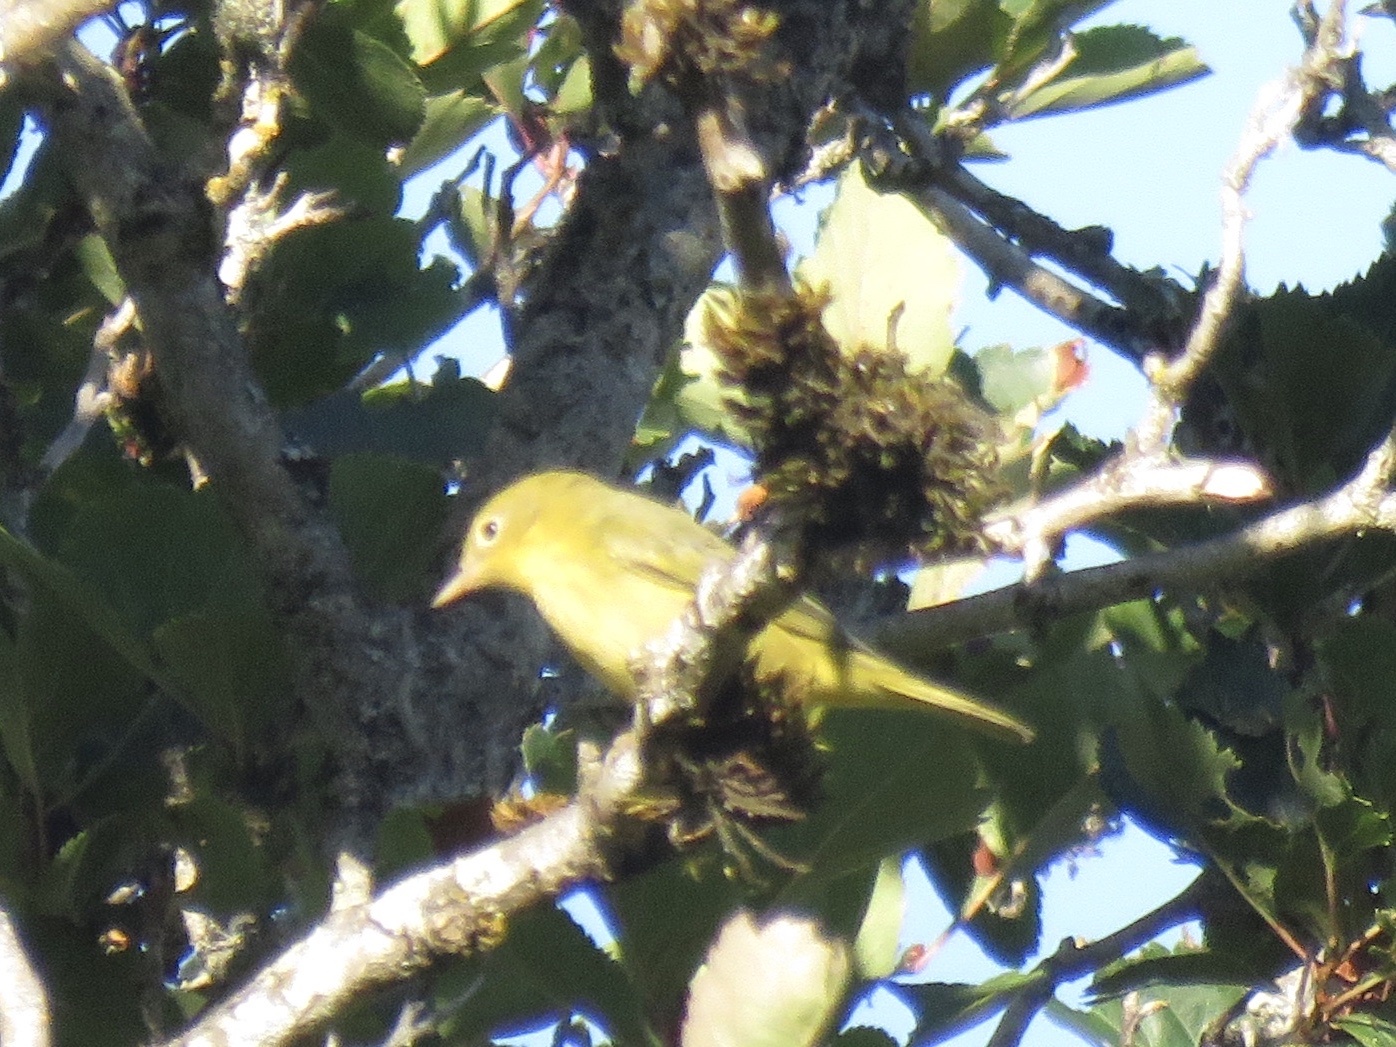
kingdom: Animalia
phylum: Chordata
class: Aves
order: Passeriformes
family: Parulidae
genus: Setophaga
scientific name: Setophaga petechia
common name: Yellow warbler
